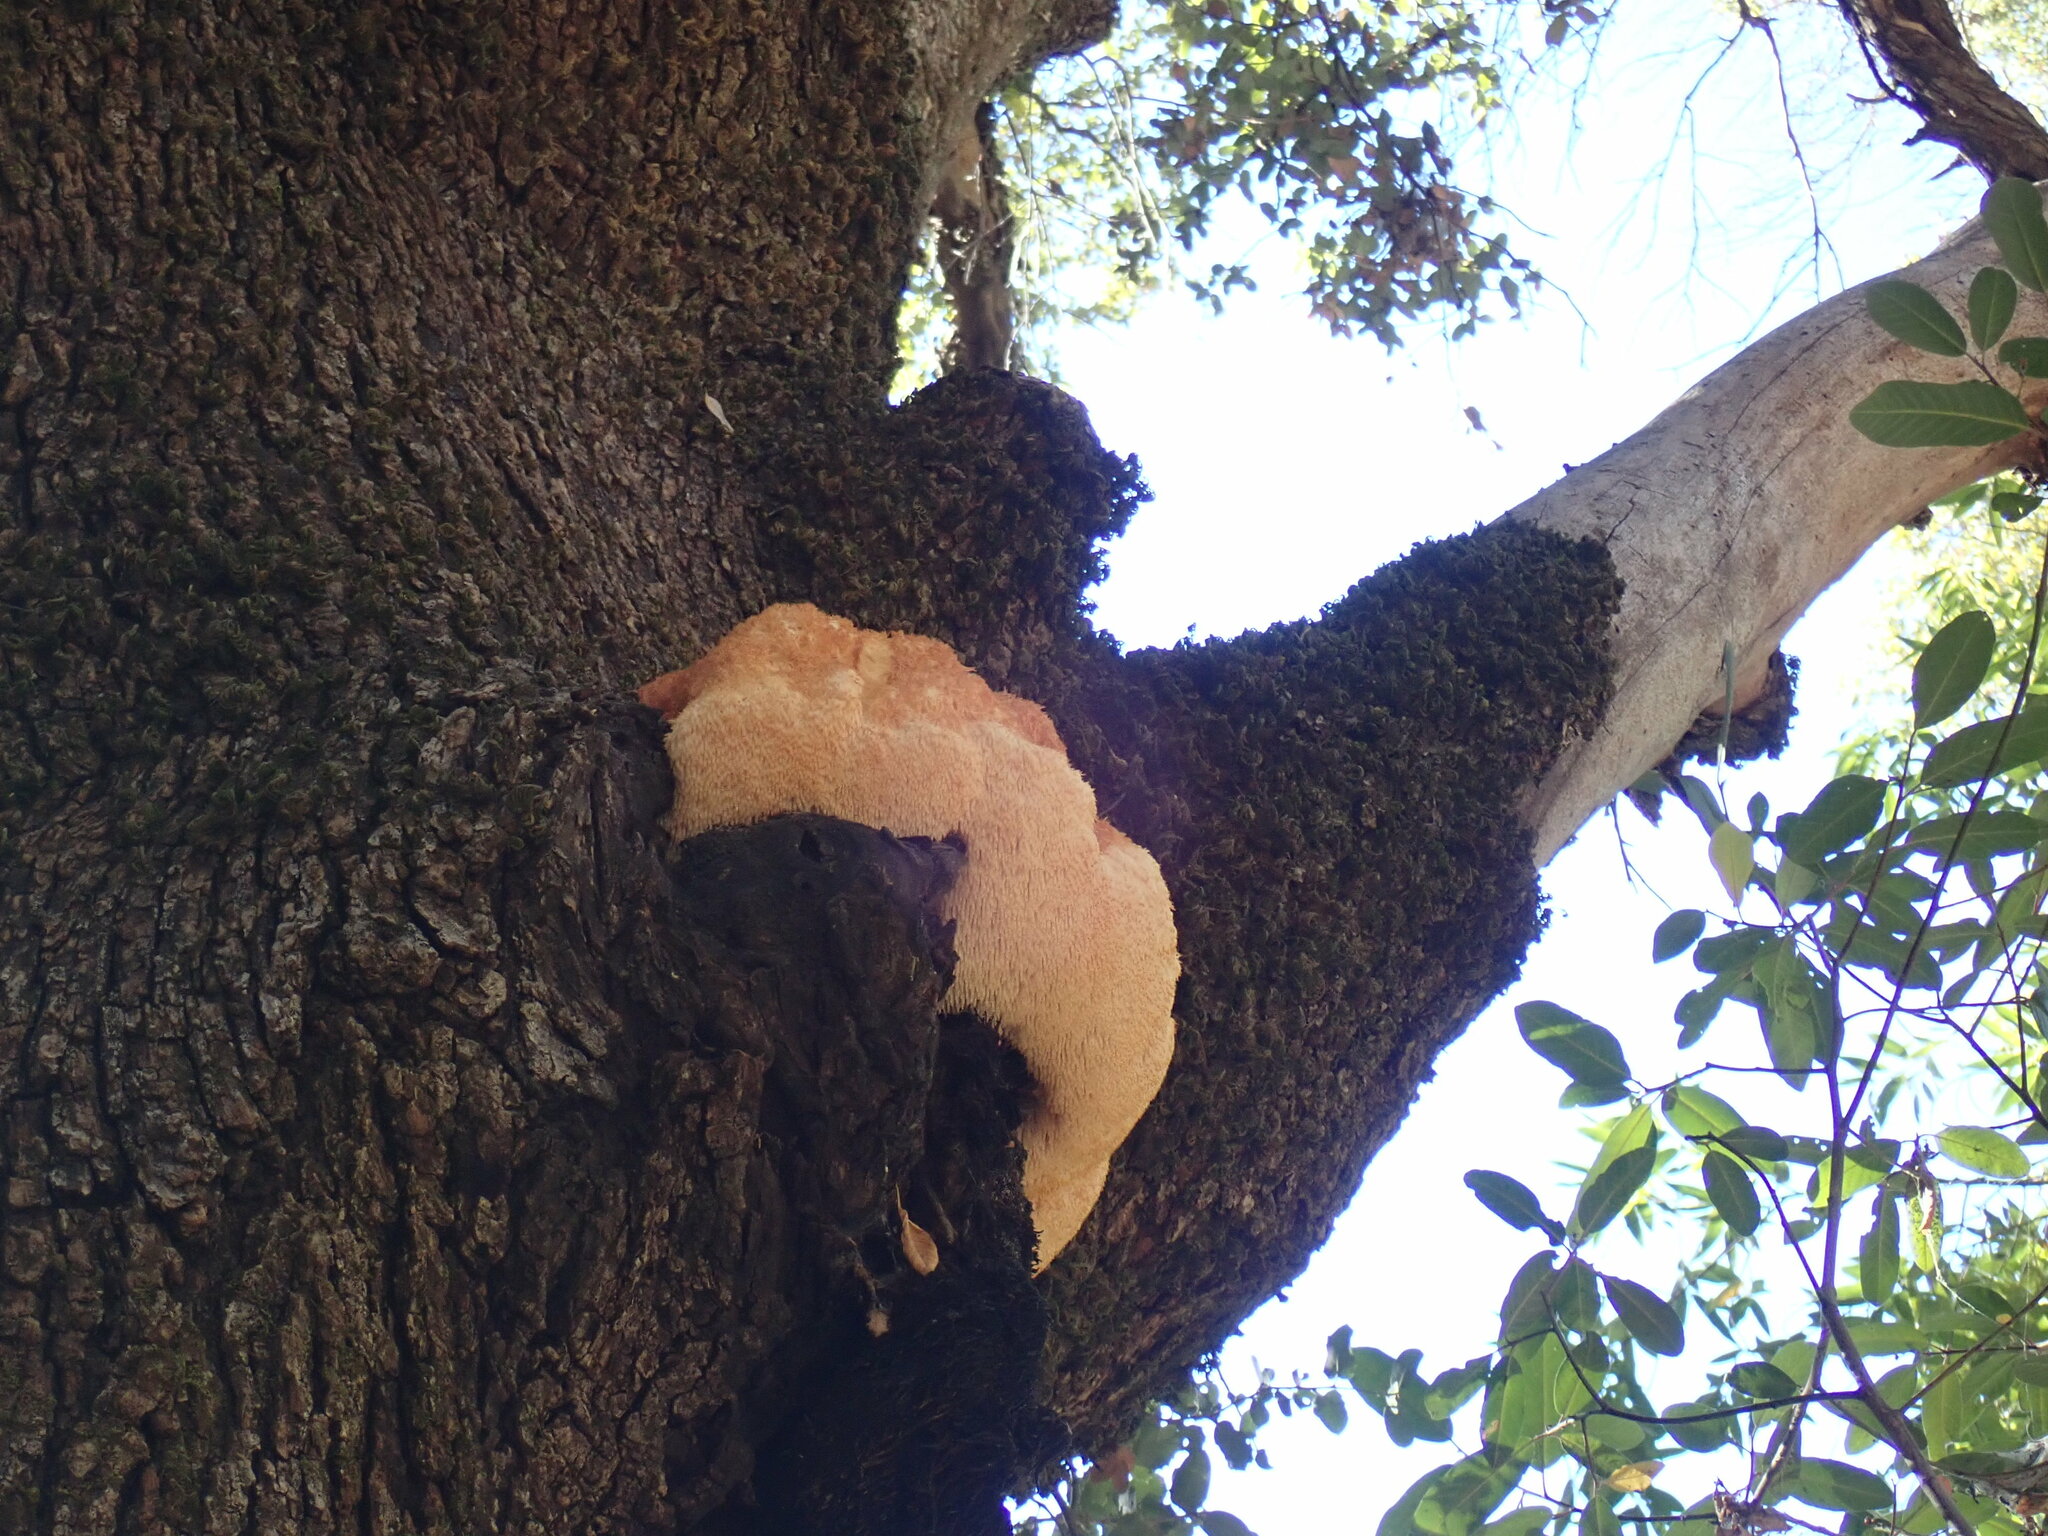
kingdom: Fungi
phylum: Basidiomycota
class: Agaricomycetes
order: Russulales
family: Hericiaceae
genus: Hericium
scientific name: Hericium erinaceus
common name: Bearded tooth
